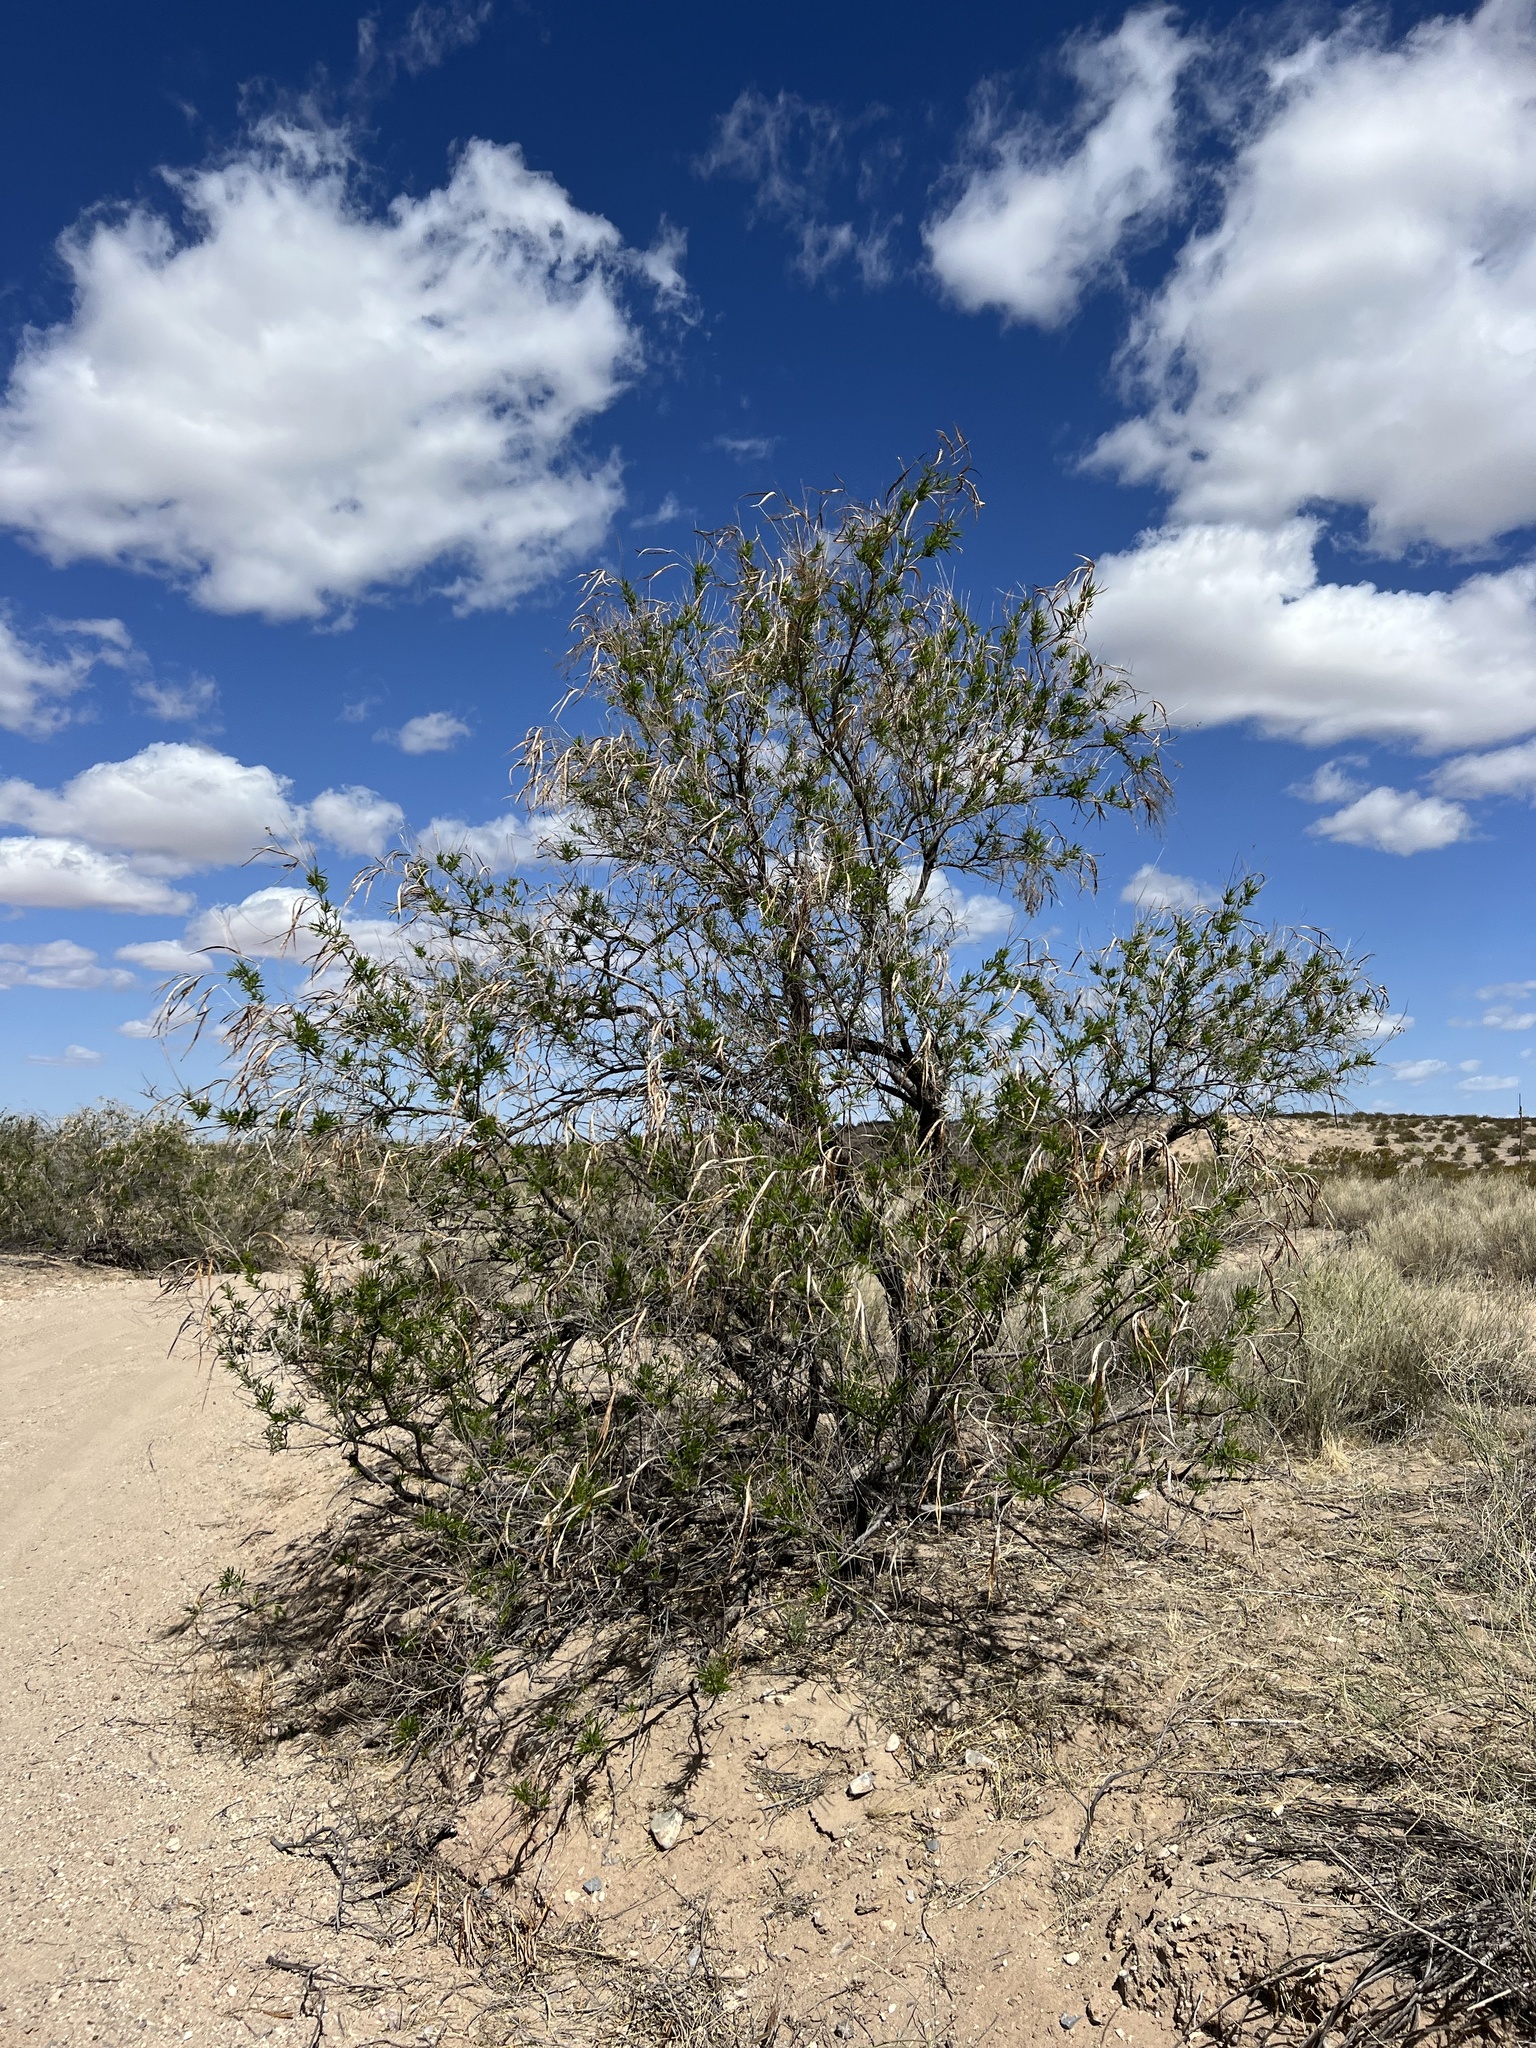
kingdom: Plantae
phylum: Tracheophyta
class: Magnoliopsida
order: Lamiales
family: Bignoniaceae
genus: Chilopsis
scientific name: Chilopsis linearis
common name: Desert-willow
